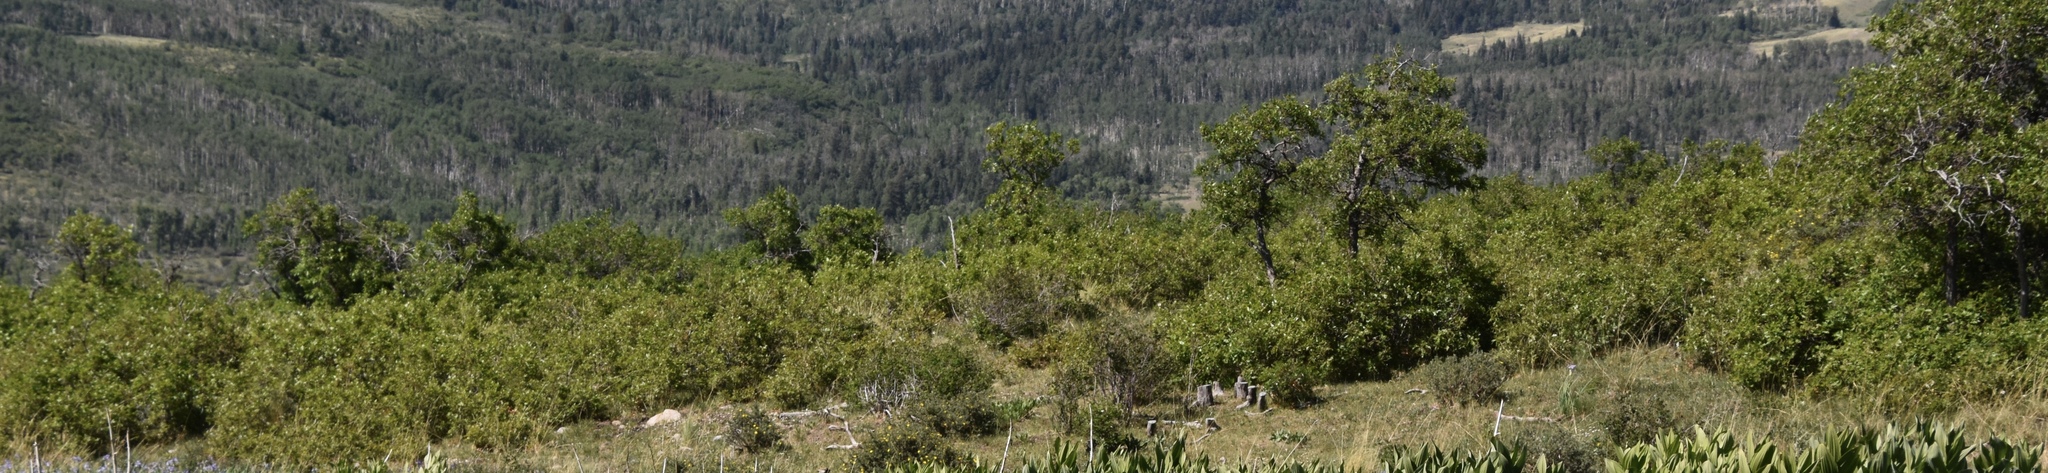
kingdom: Plantae
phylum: Tracheophyta
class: Magnoliopsida
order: Fagales
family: Fagaceae
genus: Quercus
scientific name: Quercus gambelii
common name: Gambel oak
